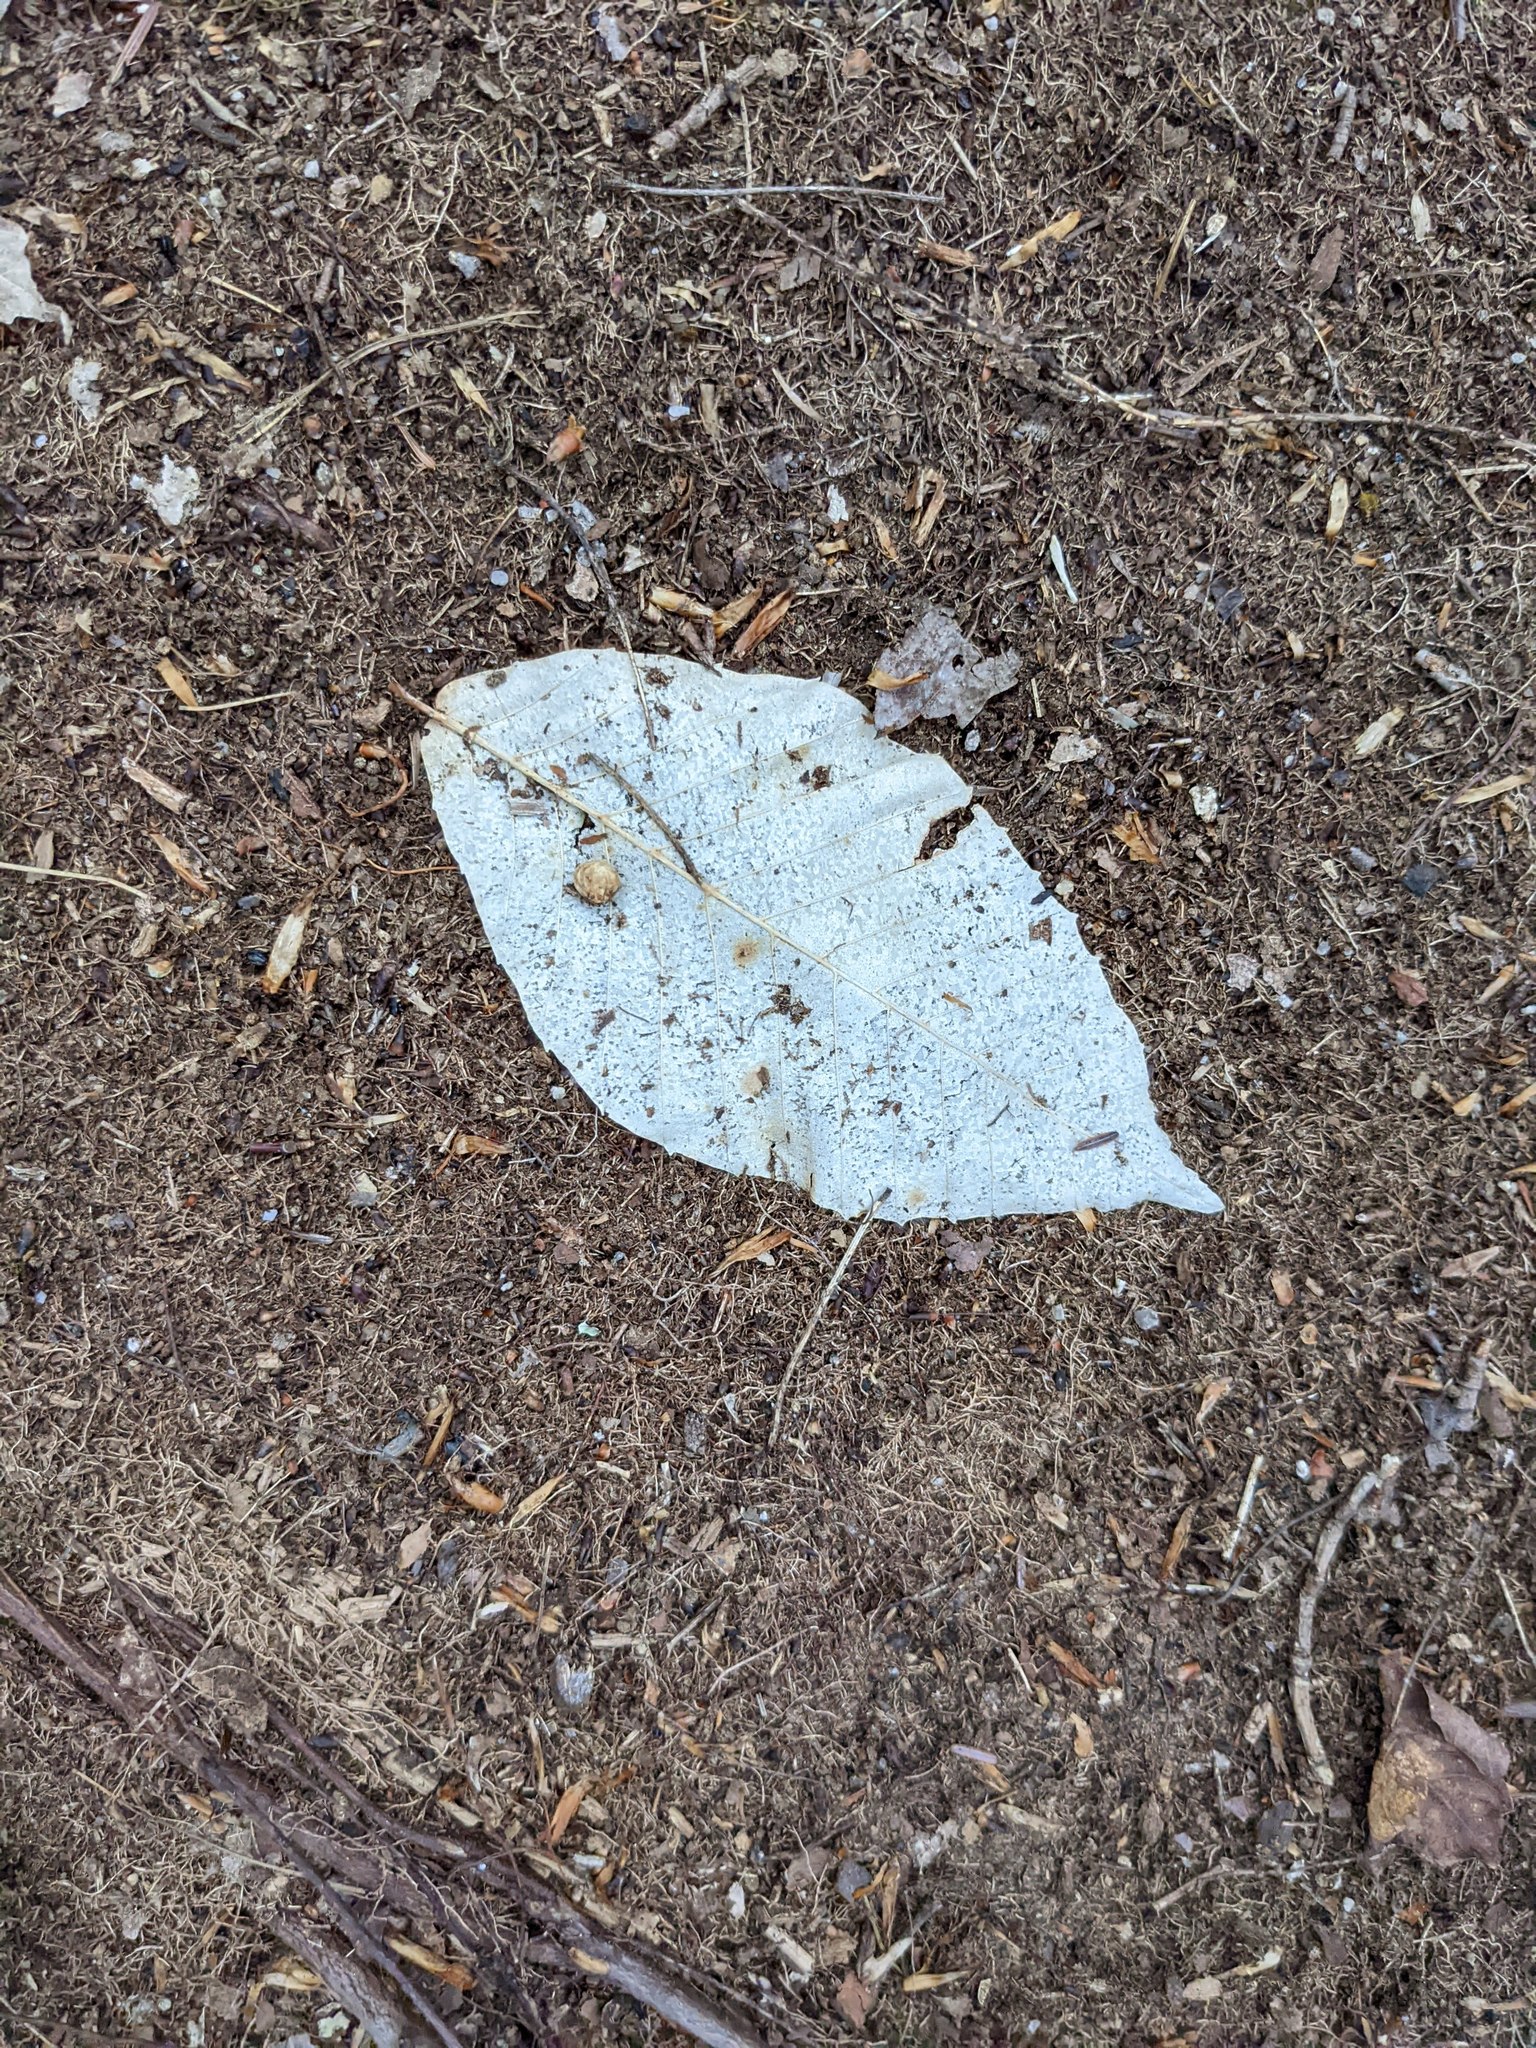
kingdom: Plantae
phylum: Tracheophyta
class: Magnoliopsida
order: Fagales
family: Fagaceae
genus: Fagus
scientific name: Fagus grandifolia
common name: American beech
